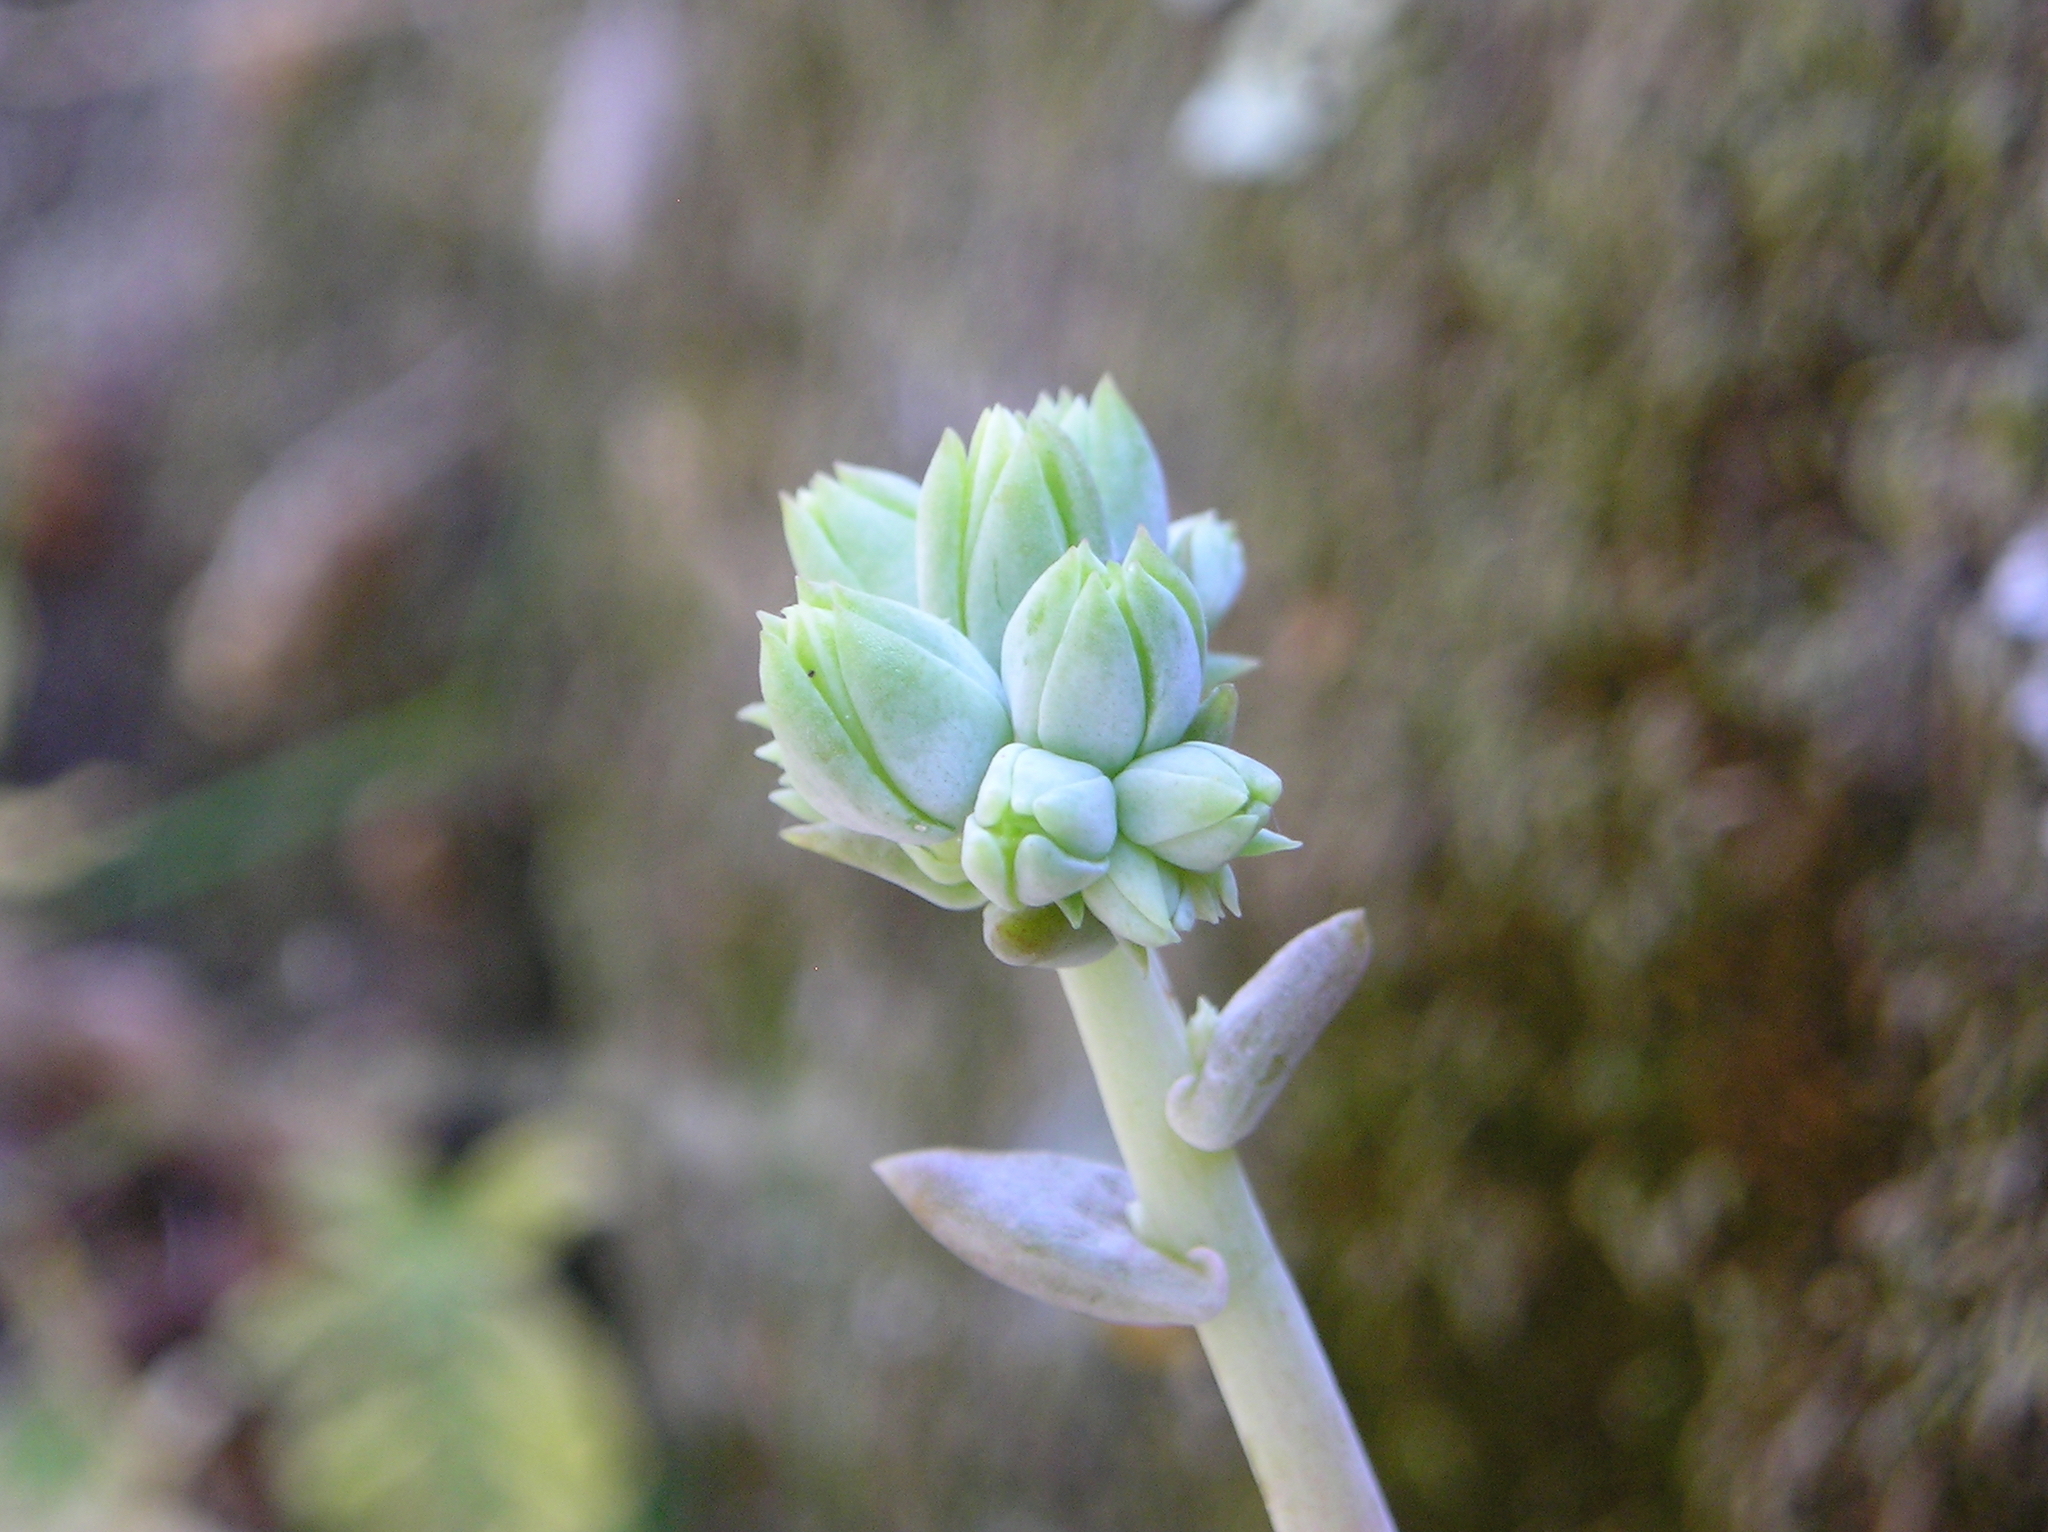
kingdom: Plantae
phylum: Tracheophyta
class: Magnoliopsida
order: Saxifragales
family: Crassulaceae
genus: Dudleya
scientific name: Dudleya cymosa
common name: Canyon dudleya
